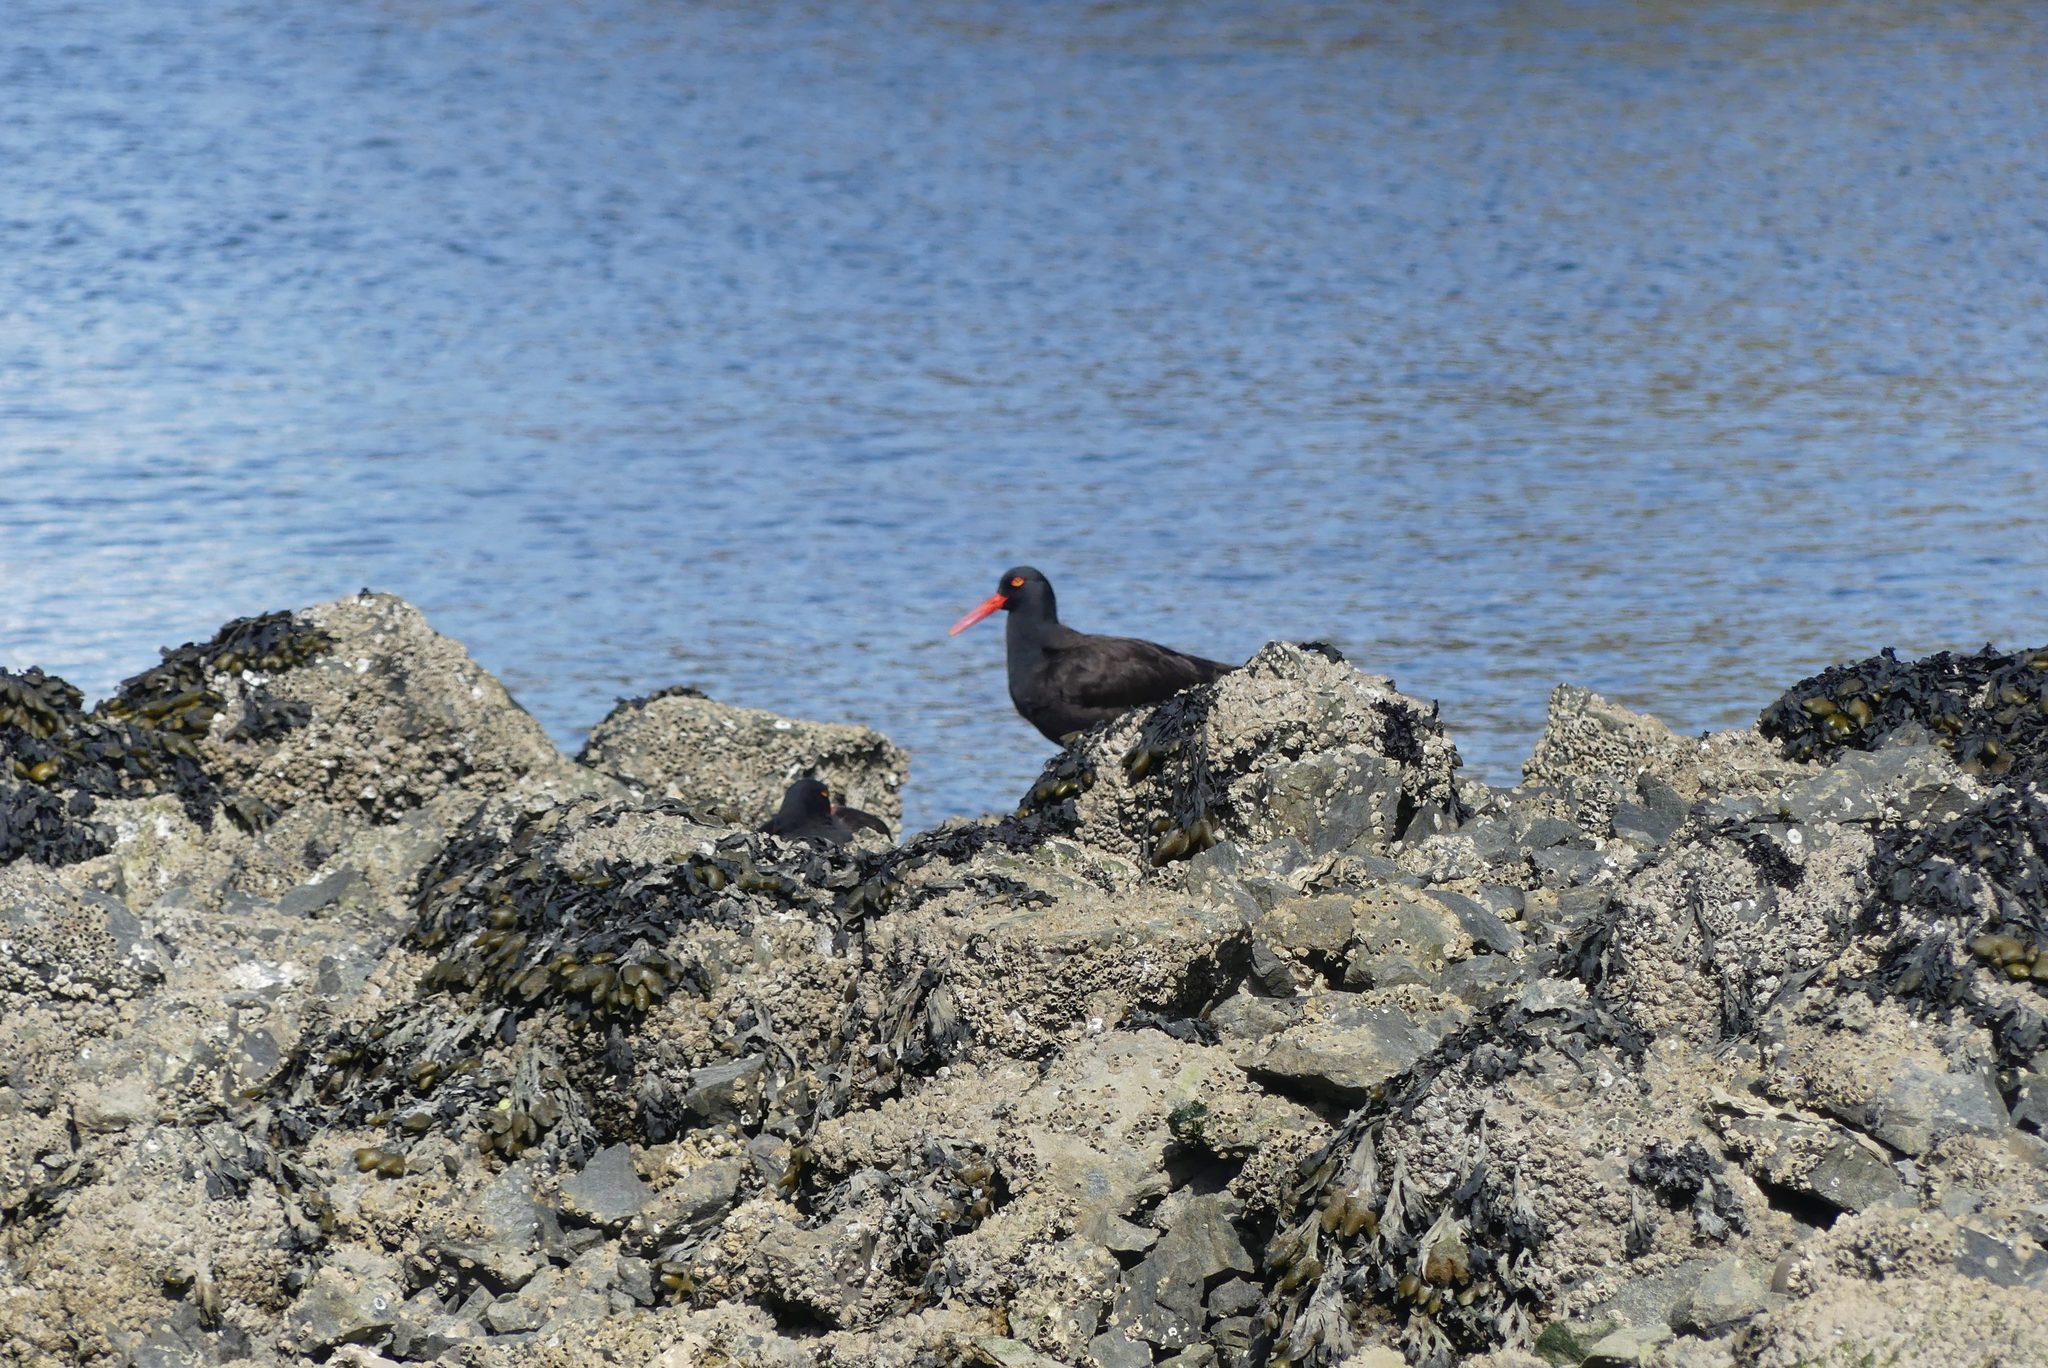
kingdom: Animalia
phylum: Chordata
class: Aves
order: Charadriiformes
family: Haematopodidae
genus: Haematopus
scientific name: Haematopus bachmani
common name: Black oystercatcher
